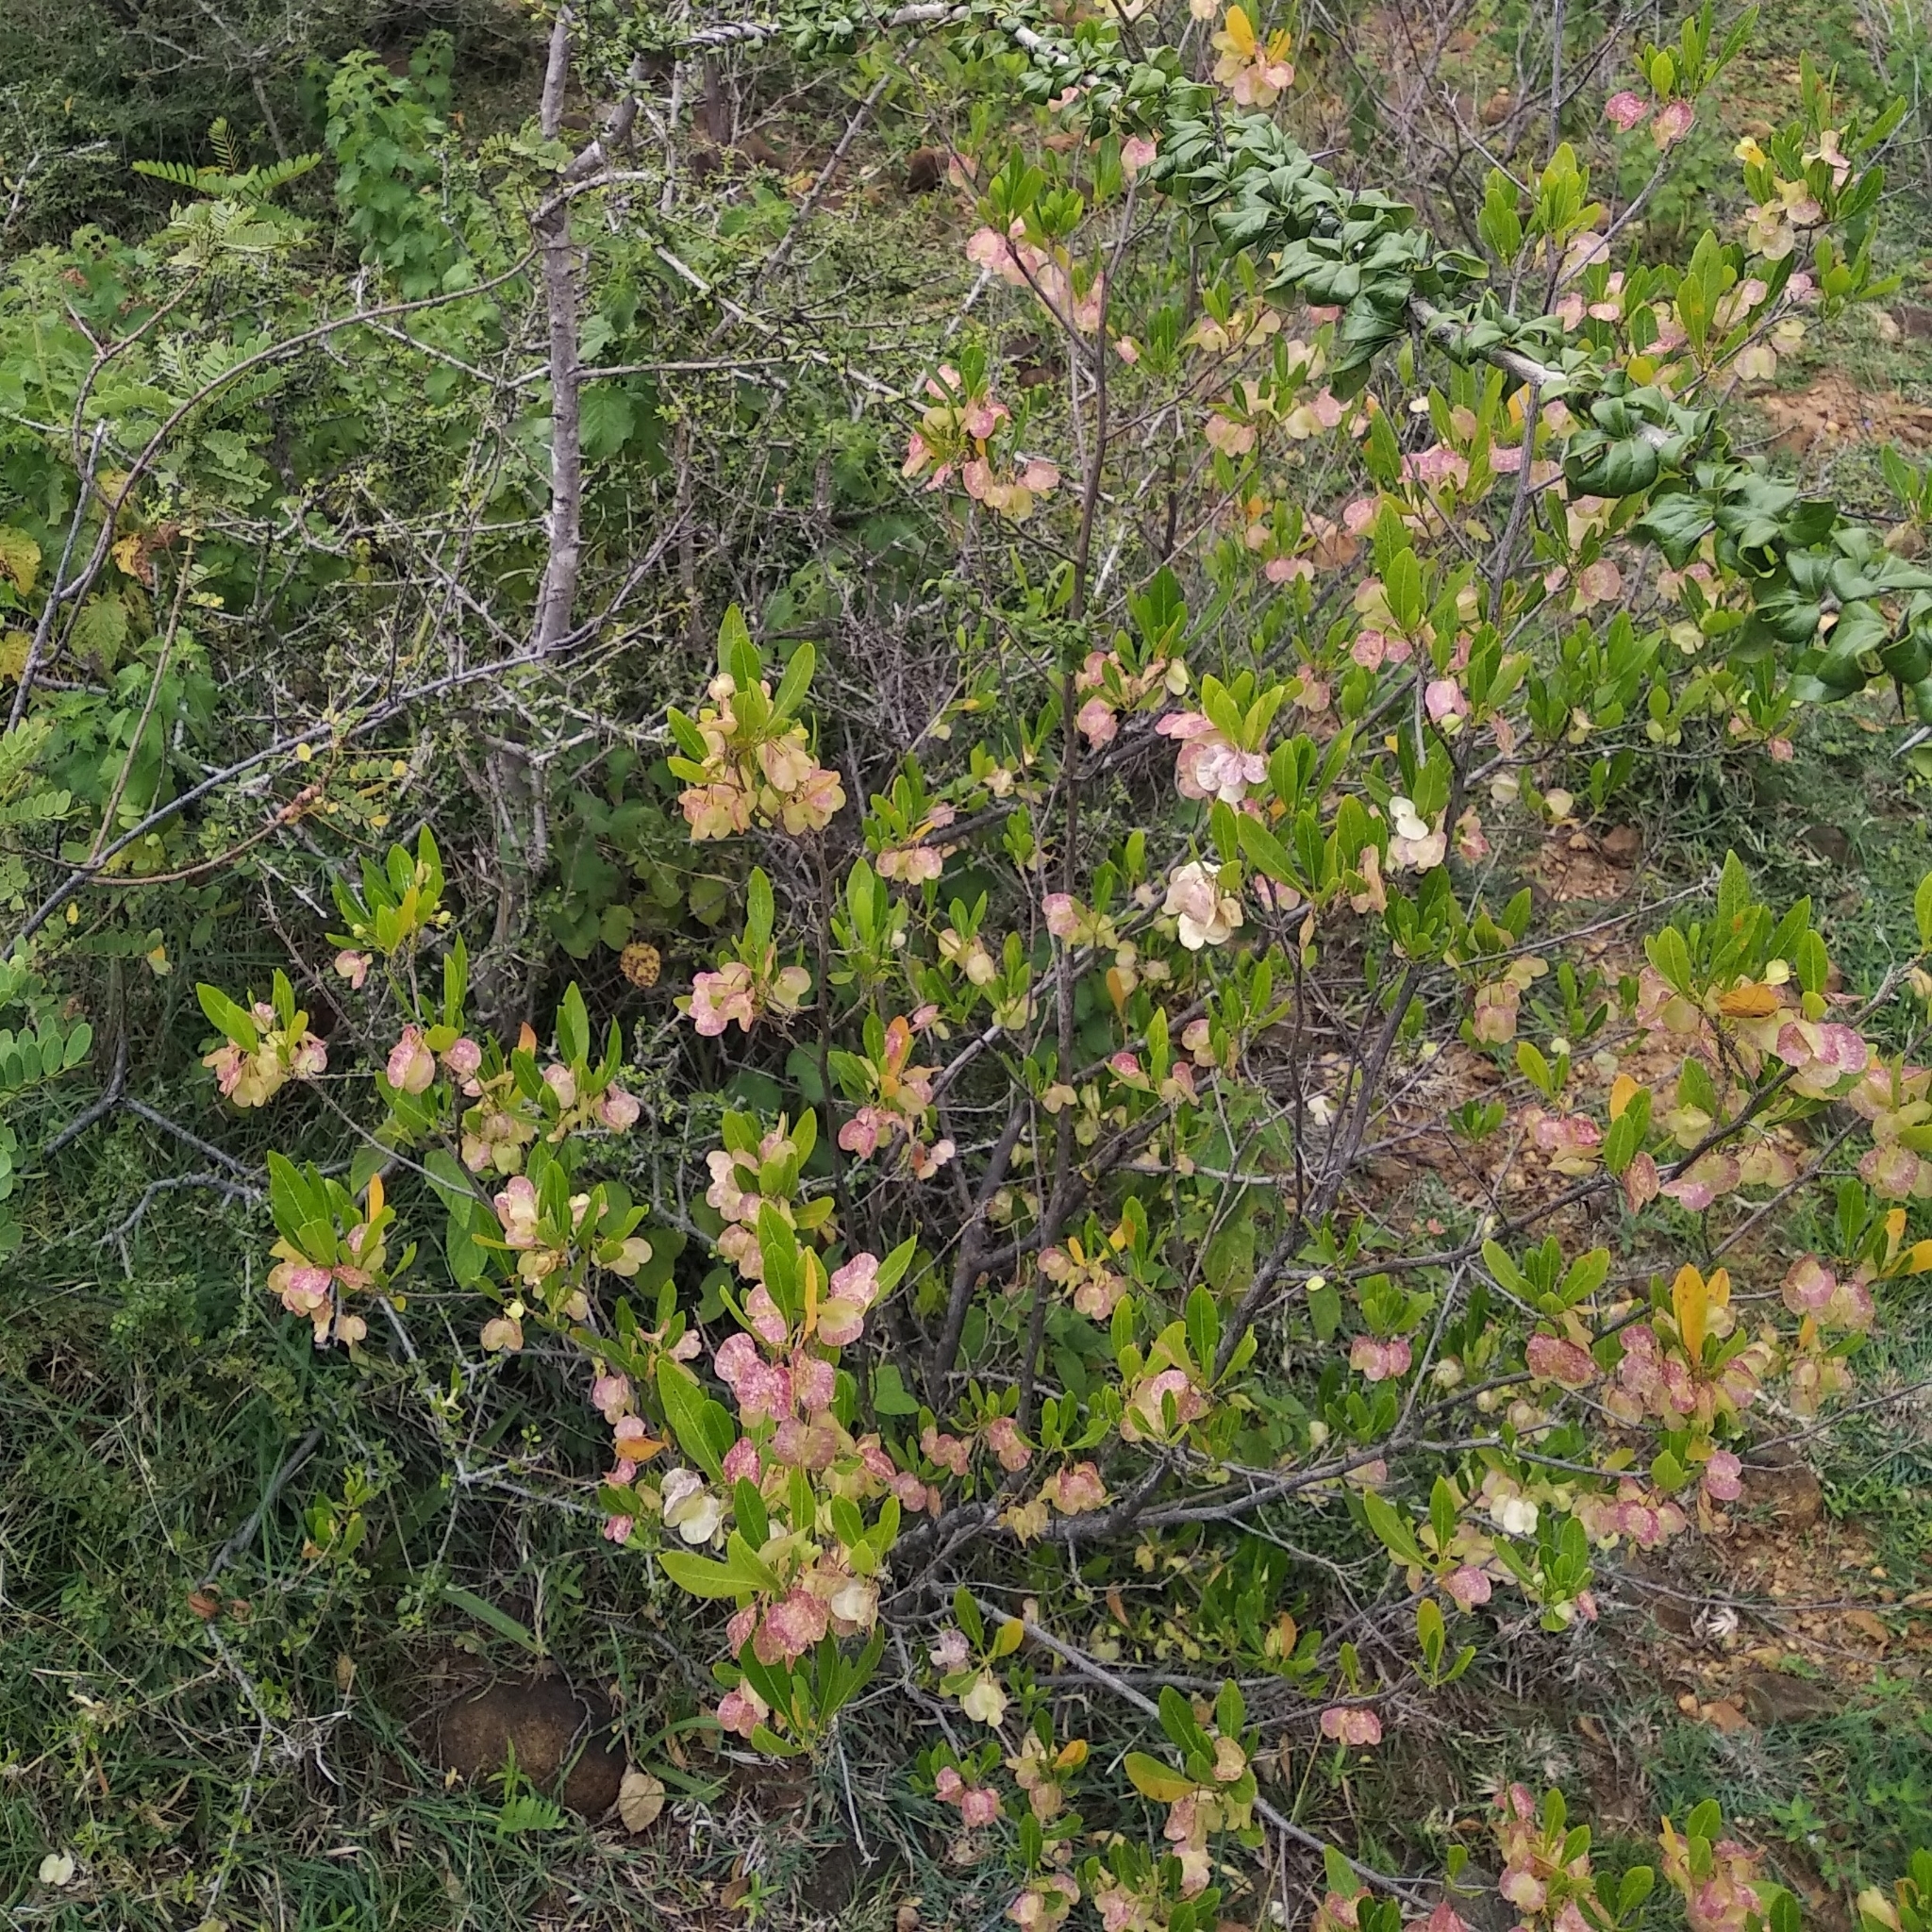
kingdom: Plantae
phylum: Tracheophyta
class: Magnoliopsida
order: Sapindales
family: Sapindaceae
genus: Dodonaea
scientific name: Dodonaea viscosa
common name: Hopbush
